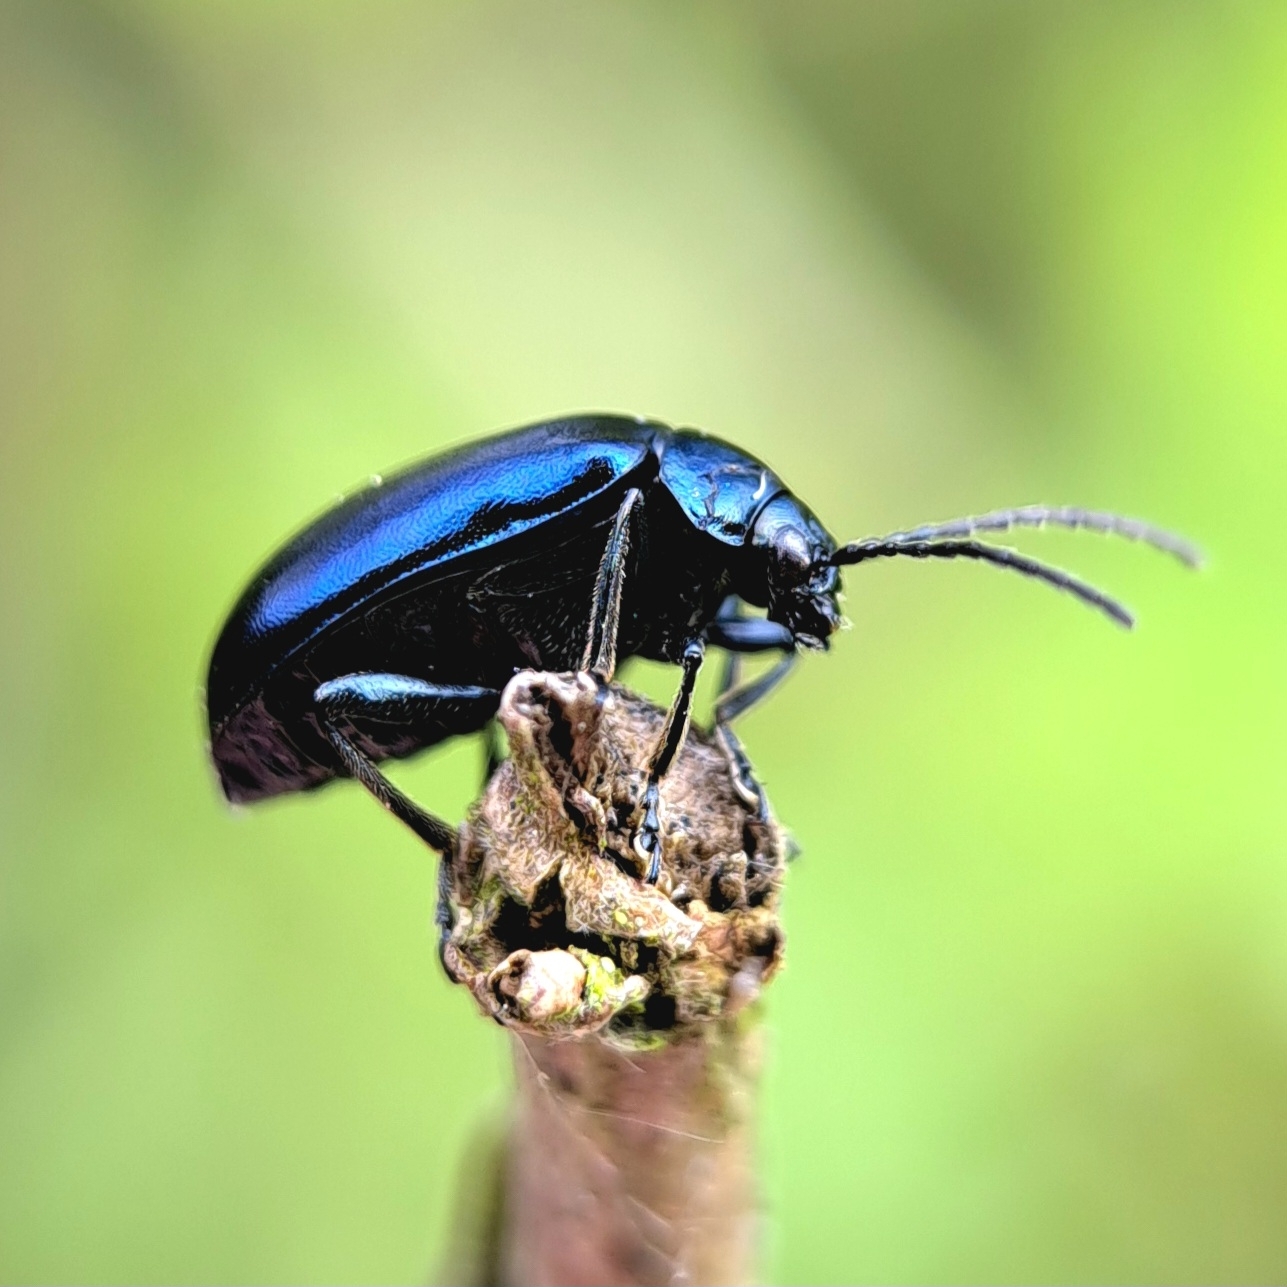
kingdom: Animalia
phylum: Arthropoda
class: Insecta
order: Coleoptera
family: Chrysomelidae
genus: Agelastica
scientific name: Agelastica alni
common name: Alder leaf beetle
